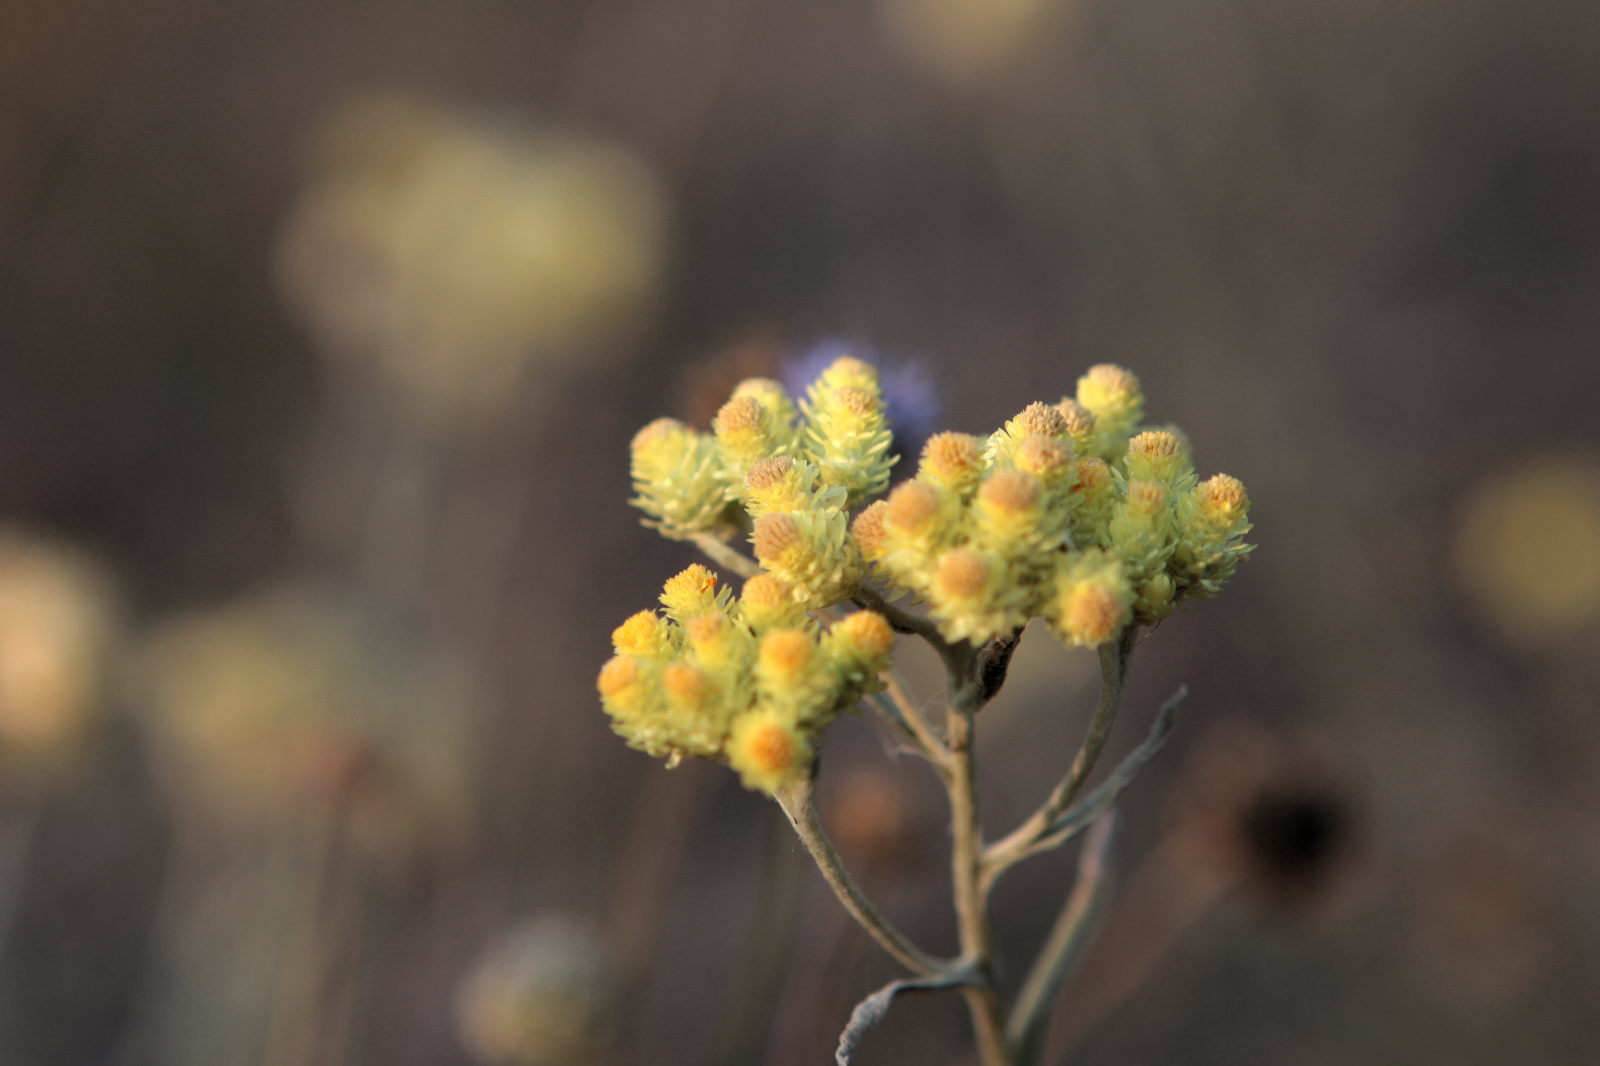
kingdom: Plantae
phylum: Tracheophyta
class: Magnoliopsida
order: Asterales
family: Asteraceae
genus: Helichrysum
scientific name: Helichrysum arenarium
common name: Strawflower
